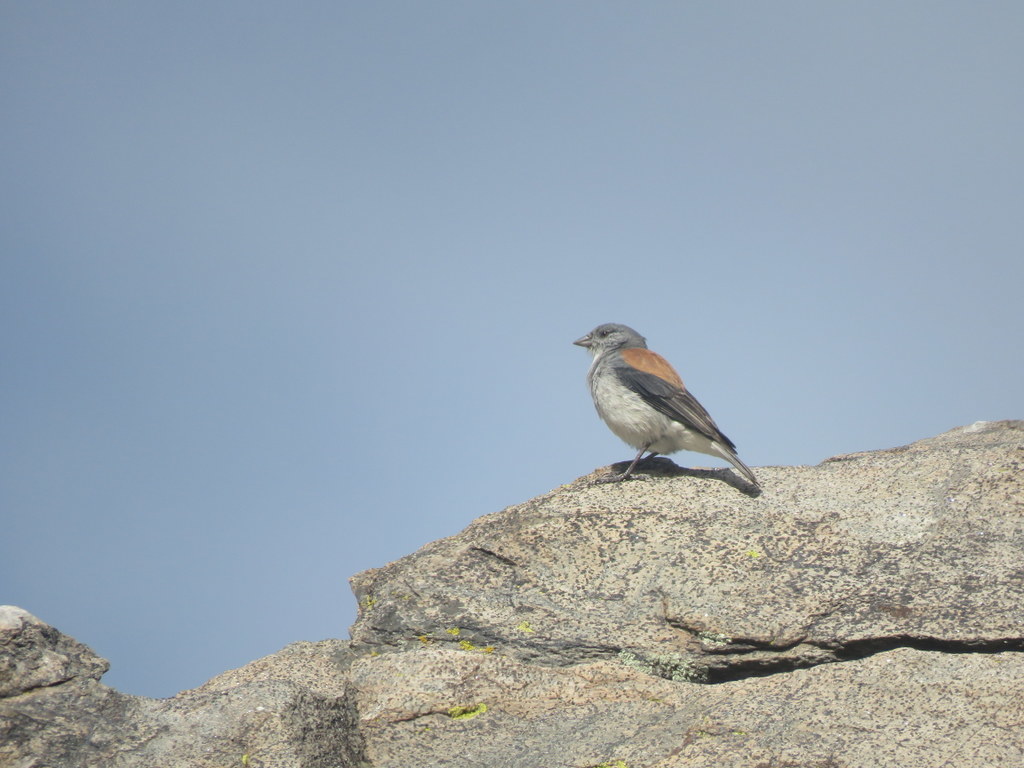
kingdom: Animalia
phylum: Chordata
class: Aves
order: Passeriformes
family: Thraupidae
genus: Idiopsar
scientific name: Idiopsar dorsalis
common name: Red-backed sierra finch
